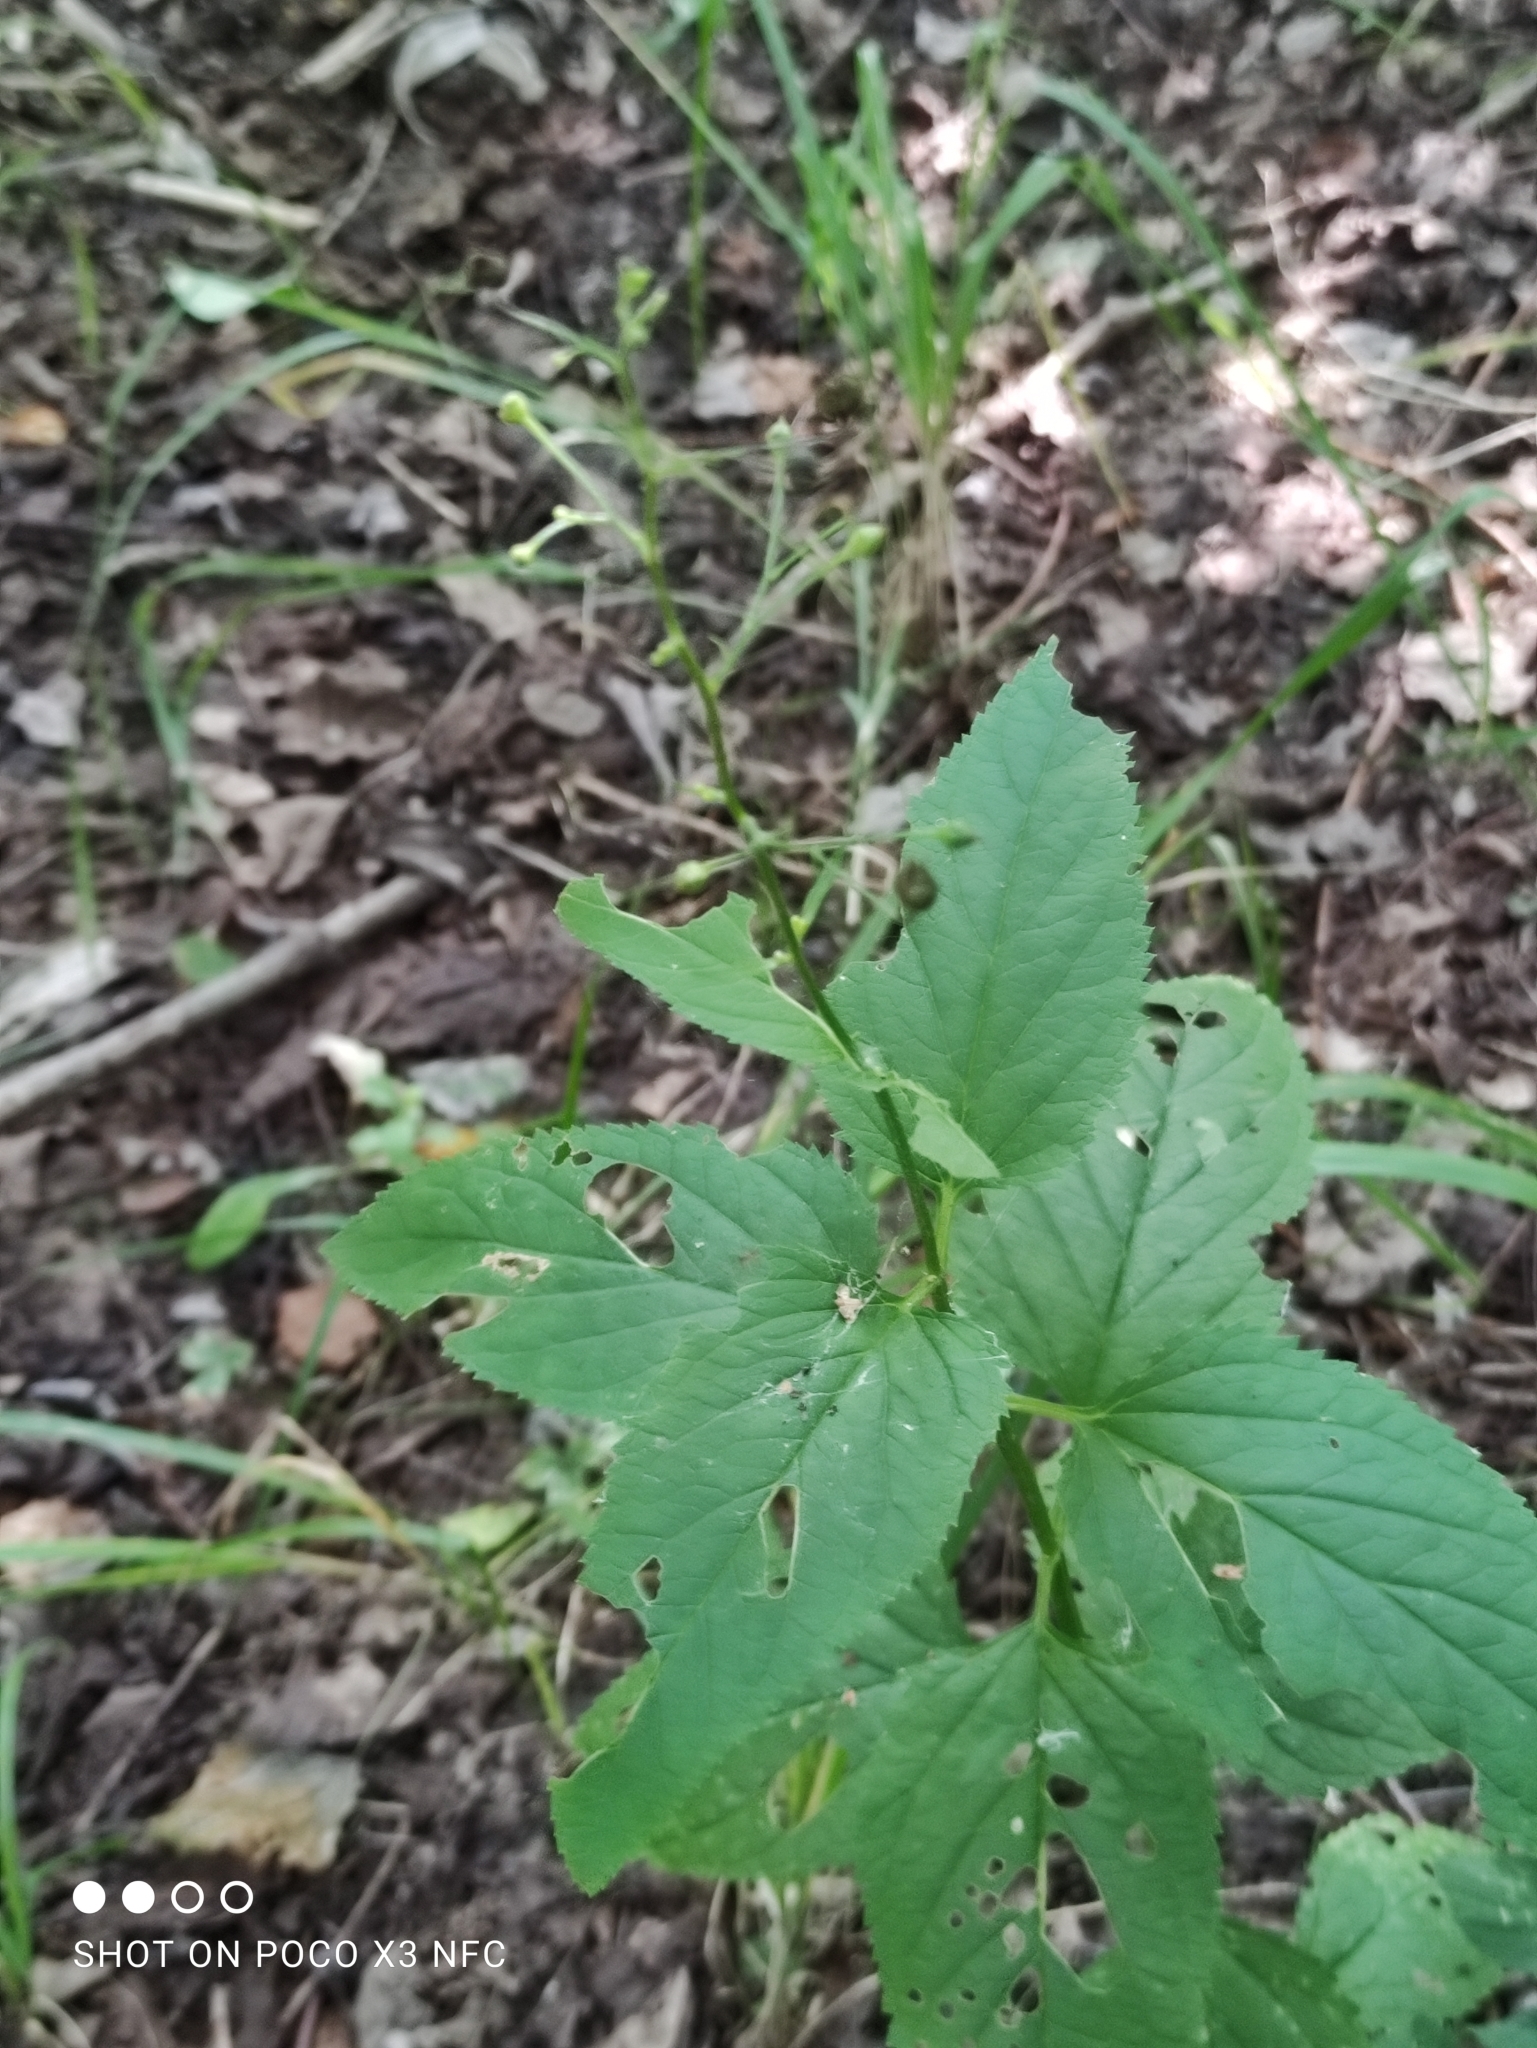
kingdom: Plantae
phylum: Tracheophyta
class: Magnoliopsida
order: Lamiales
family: Scrophulariaceae
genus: Scrophularia
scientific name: Scrophularia nodosa
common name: Common figwort
